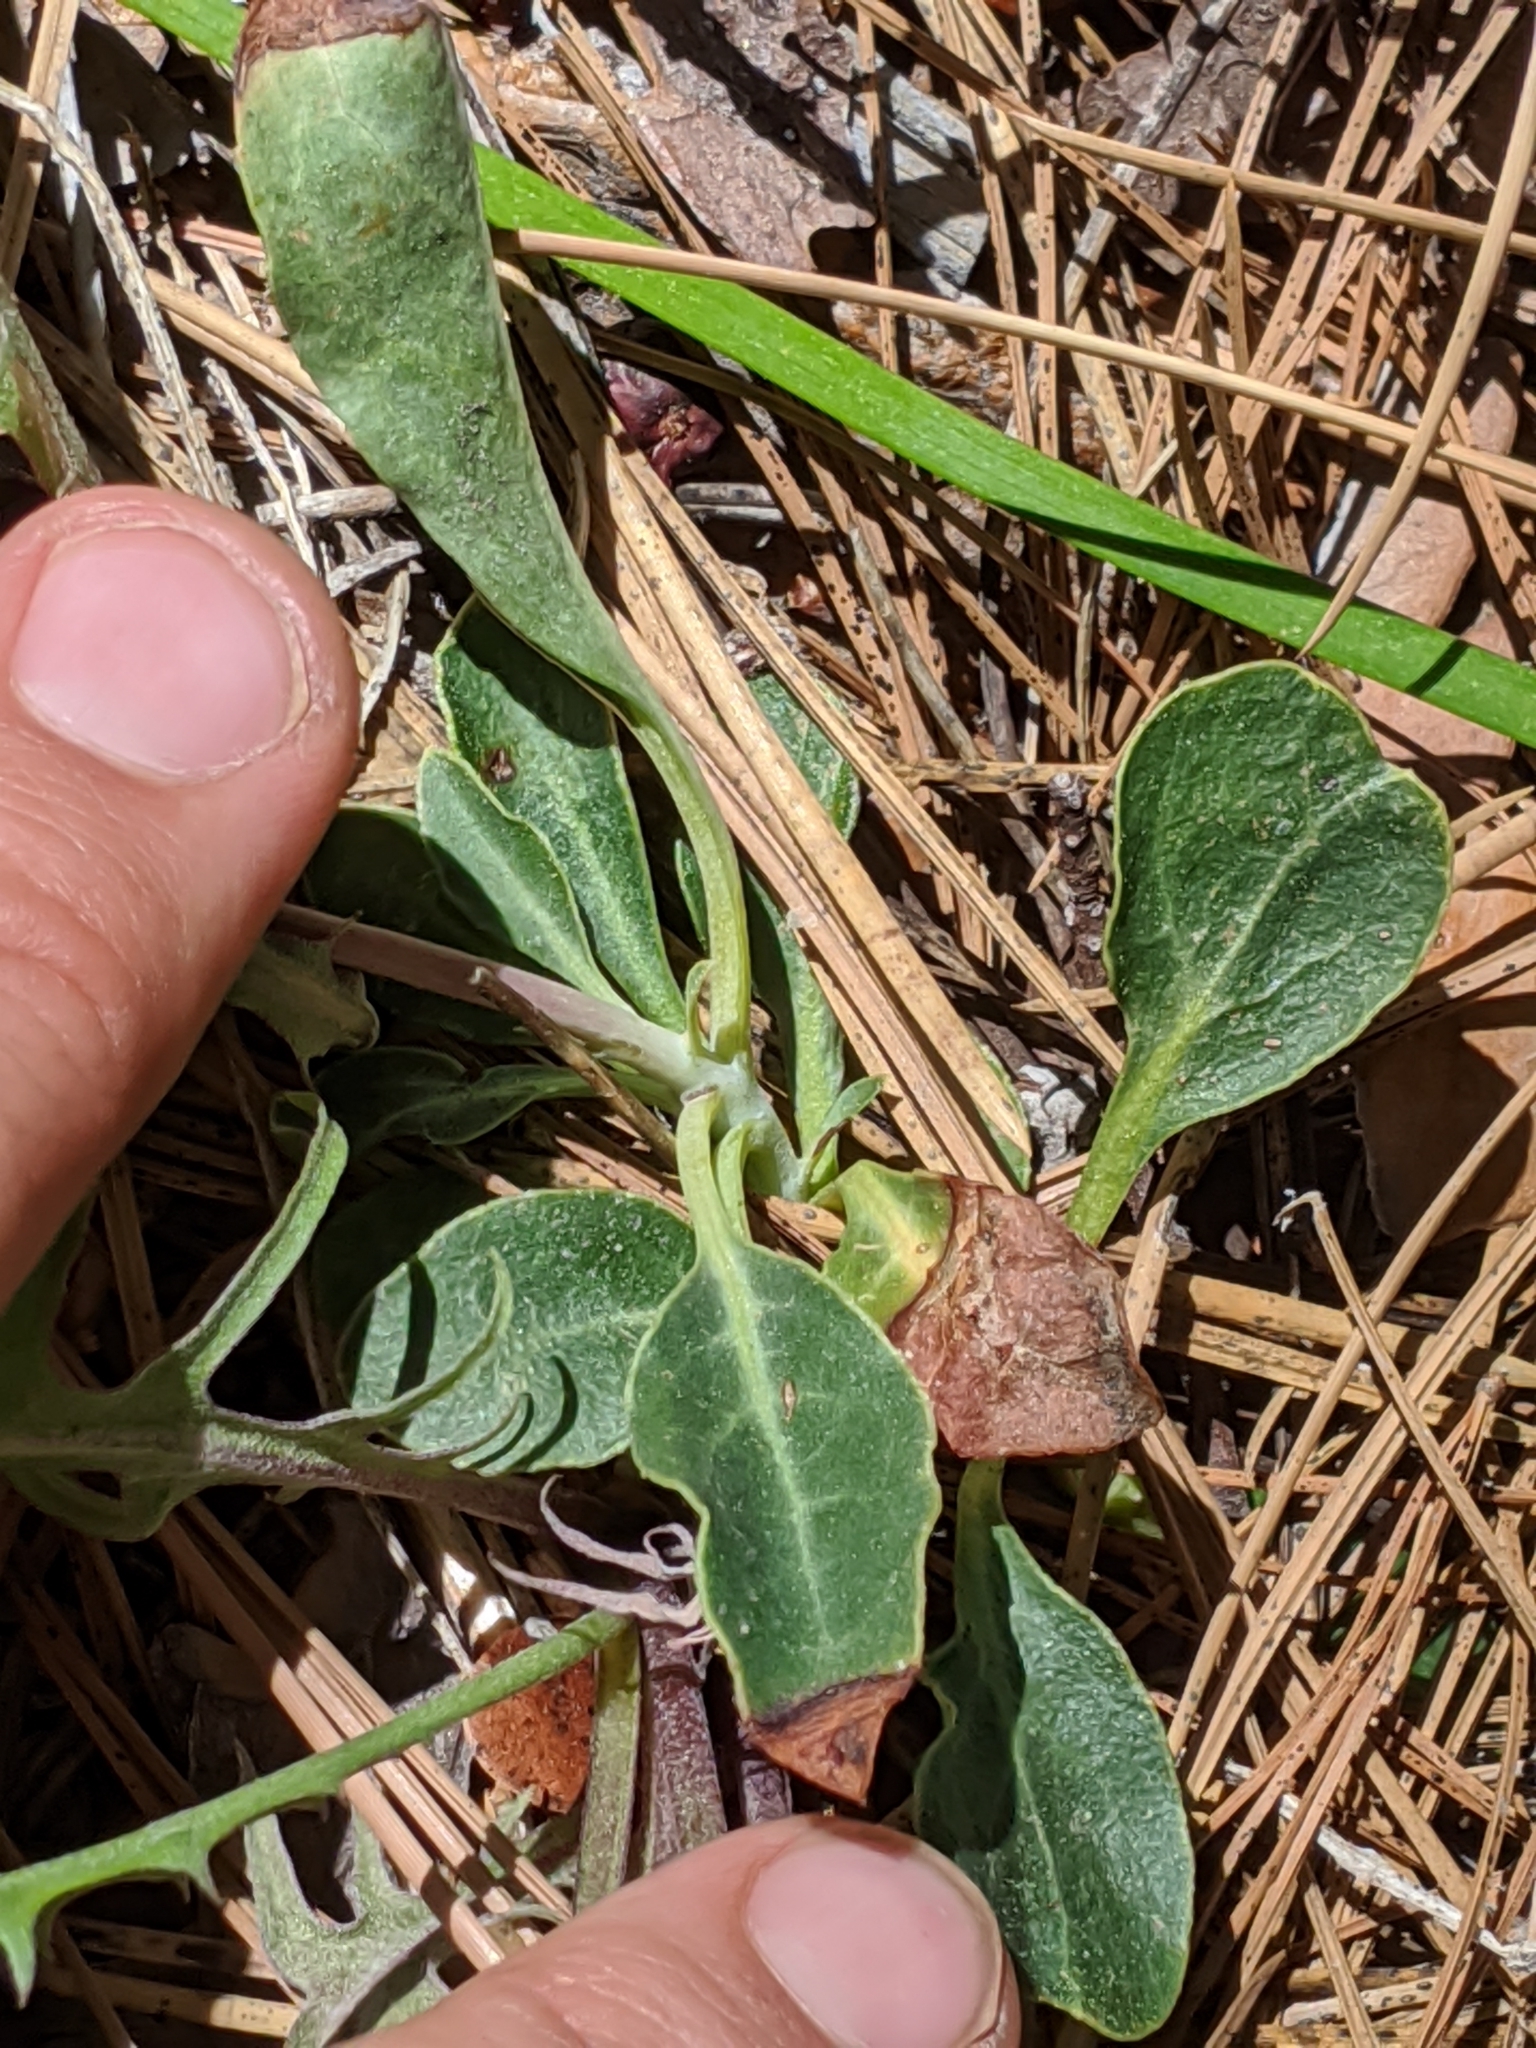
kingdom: Plantae
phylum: Tracheophyta
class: Magnoliopsida
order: Ericales
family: Ericaceae
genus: Pyrola
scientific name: Pyrola dentata
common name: Tooth-leaved wintergreen
